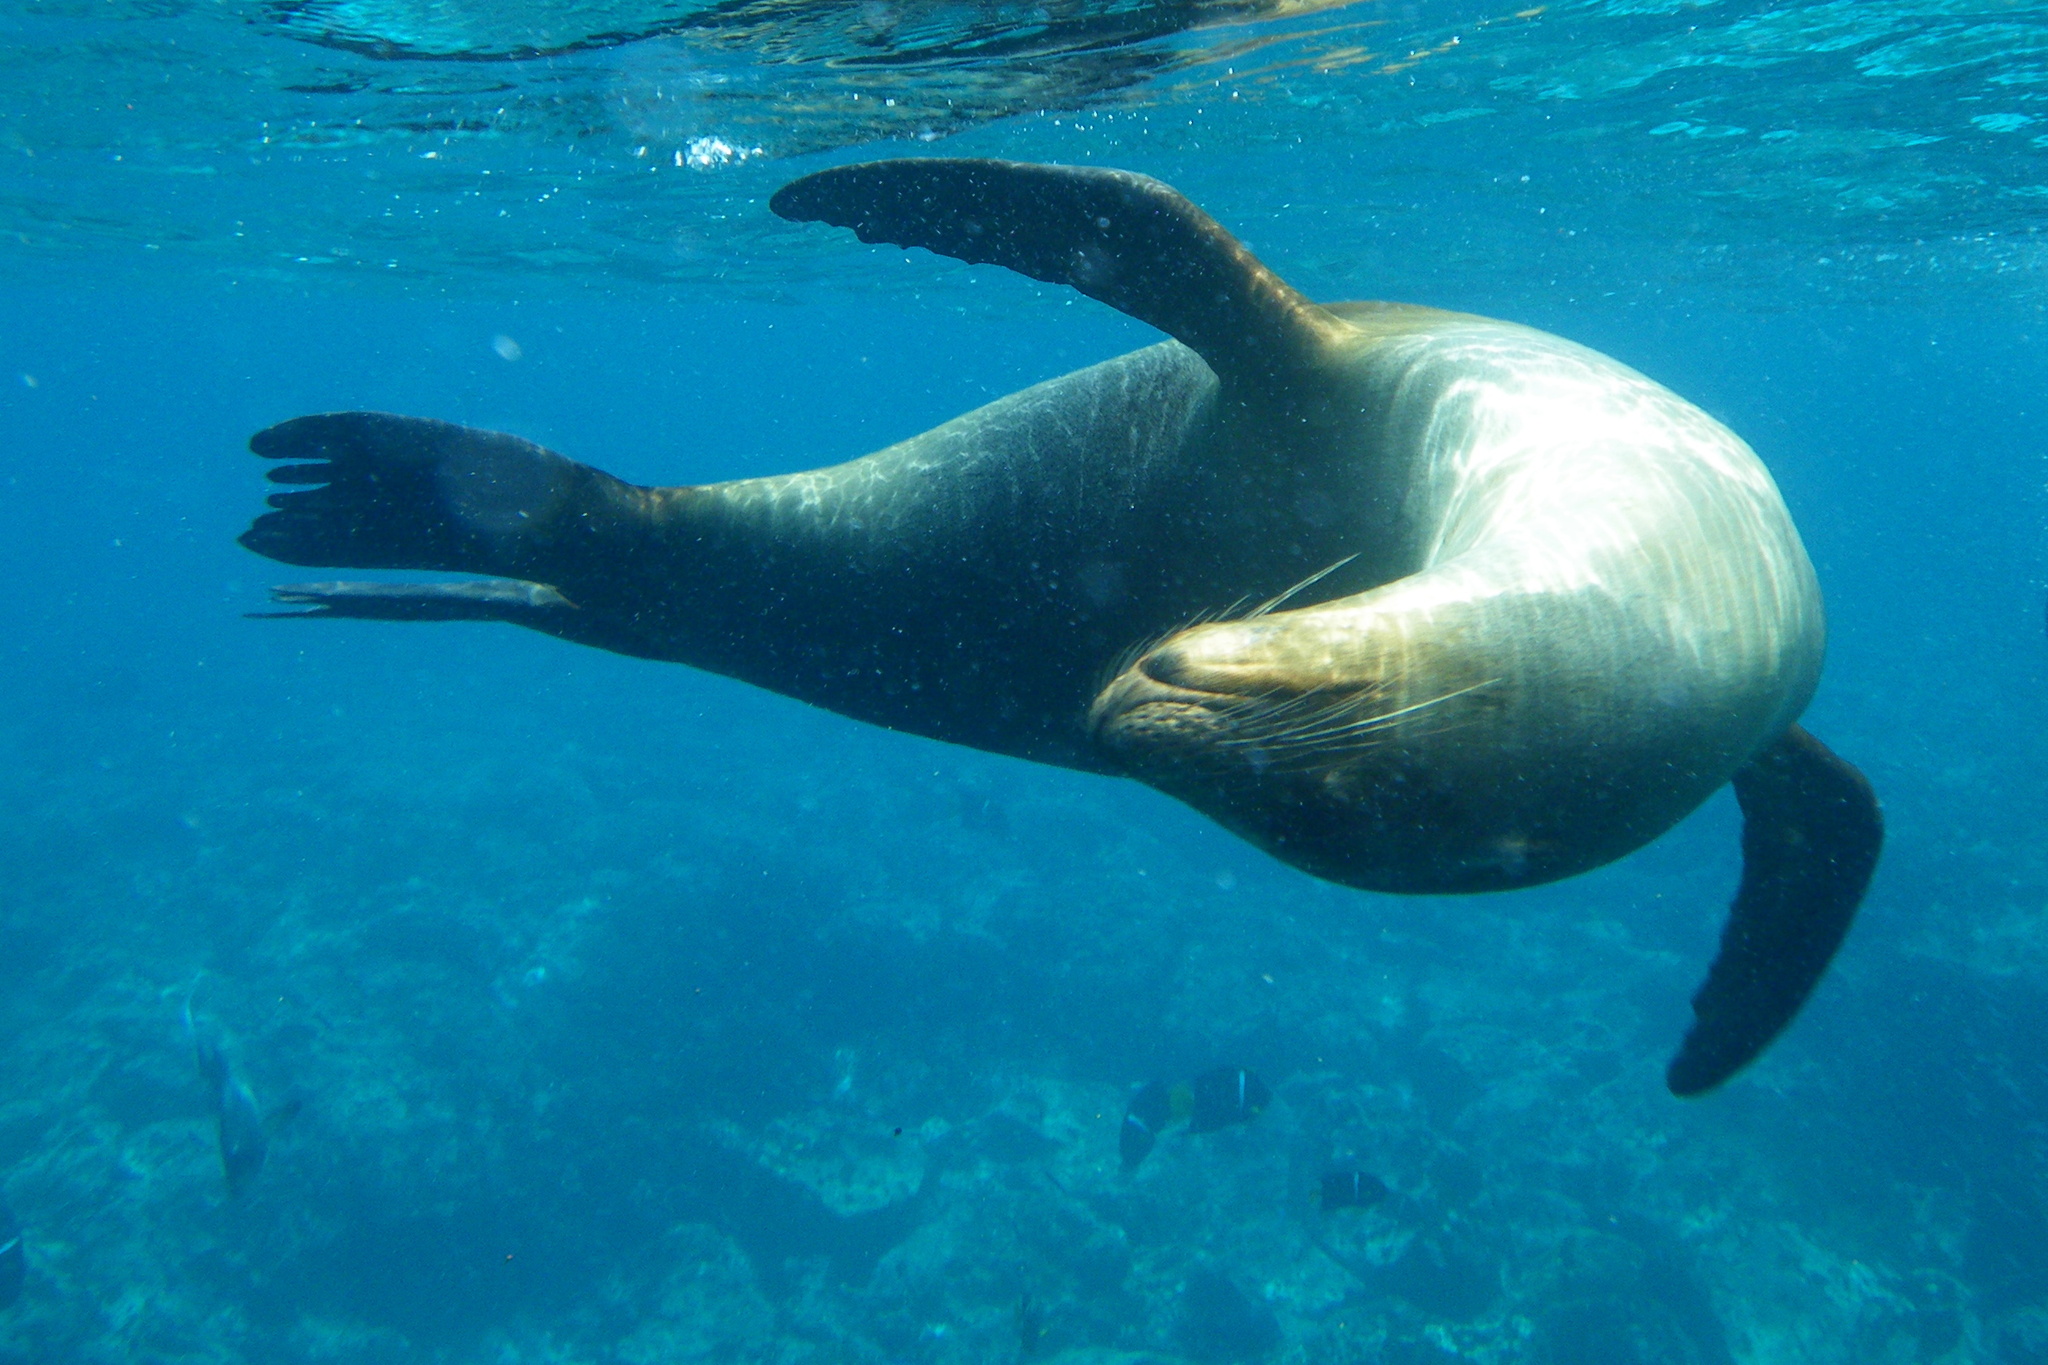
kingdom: Animalia
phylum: Chordata
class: Mammalia
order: Carnivora
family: Otariidae
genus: Zalophus
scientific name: Zalophus wollebaeki
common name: Galapagos sea lion
